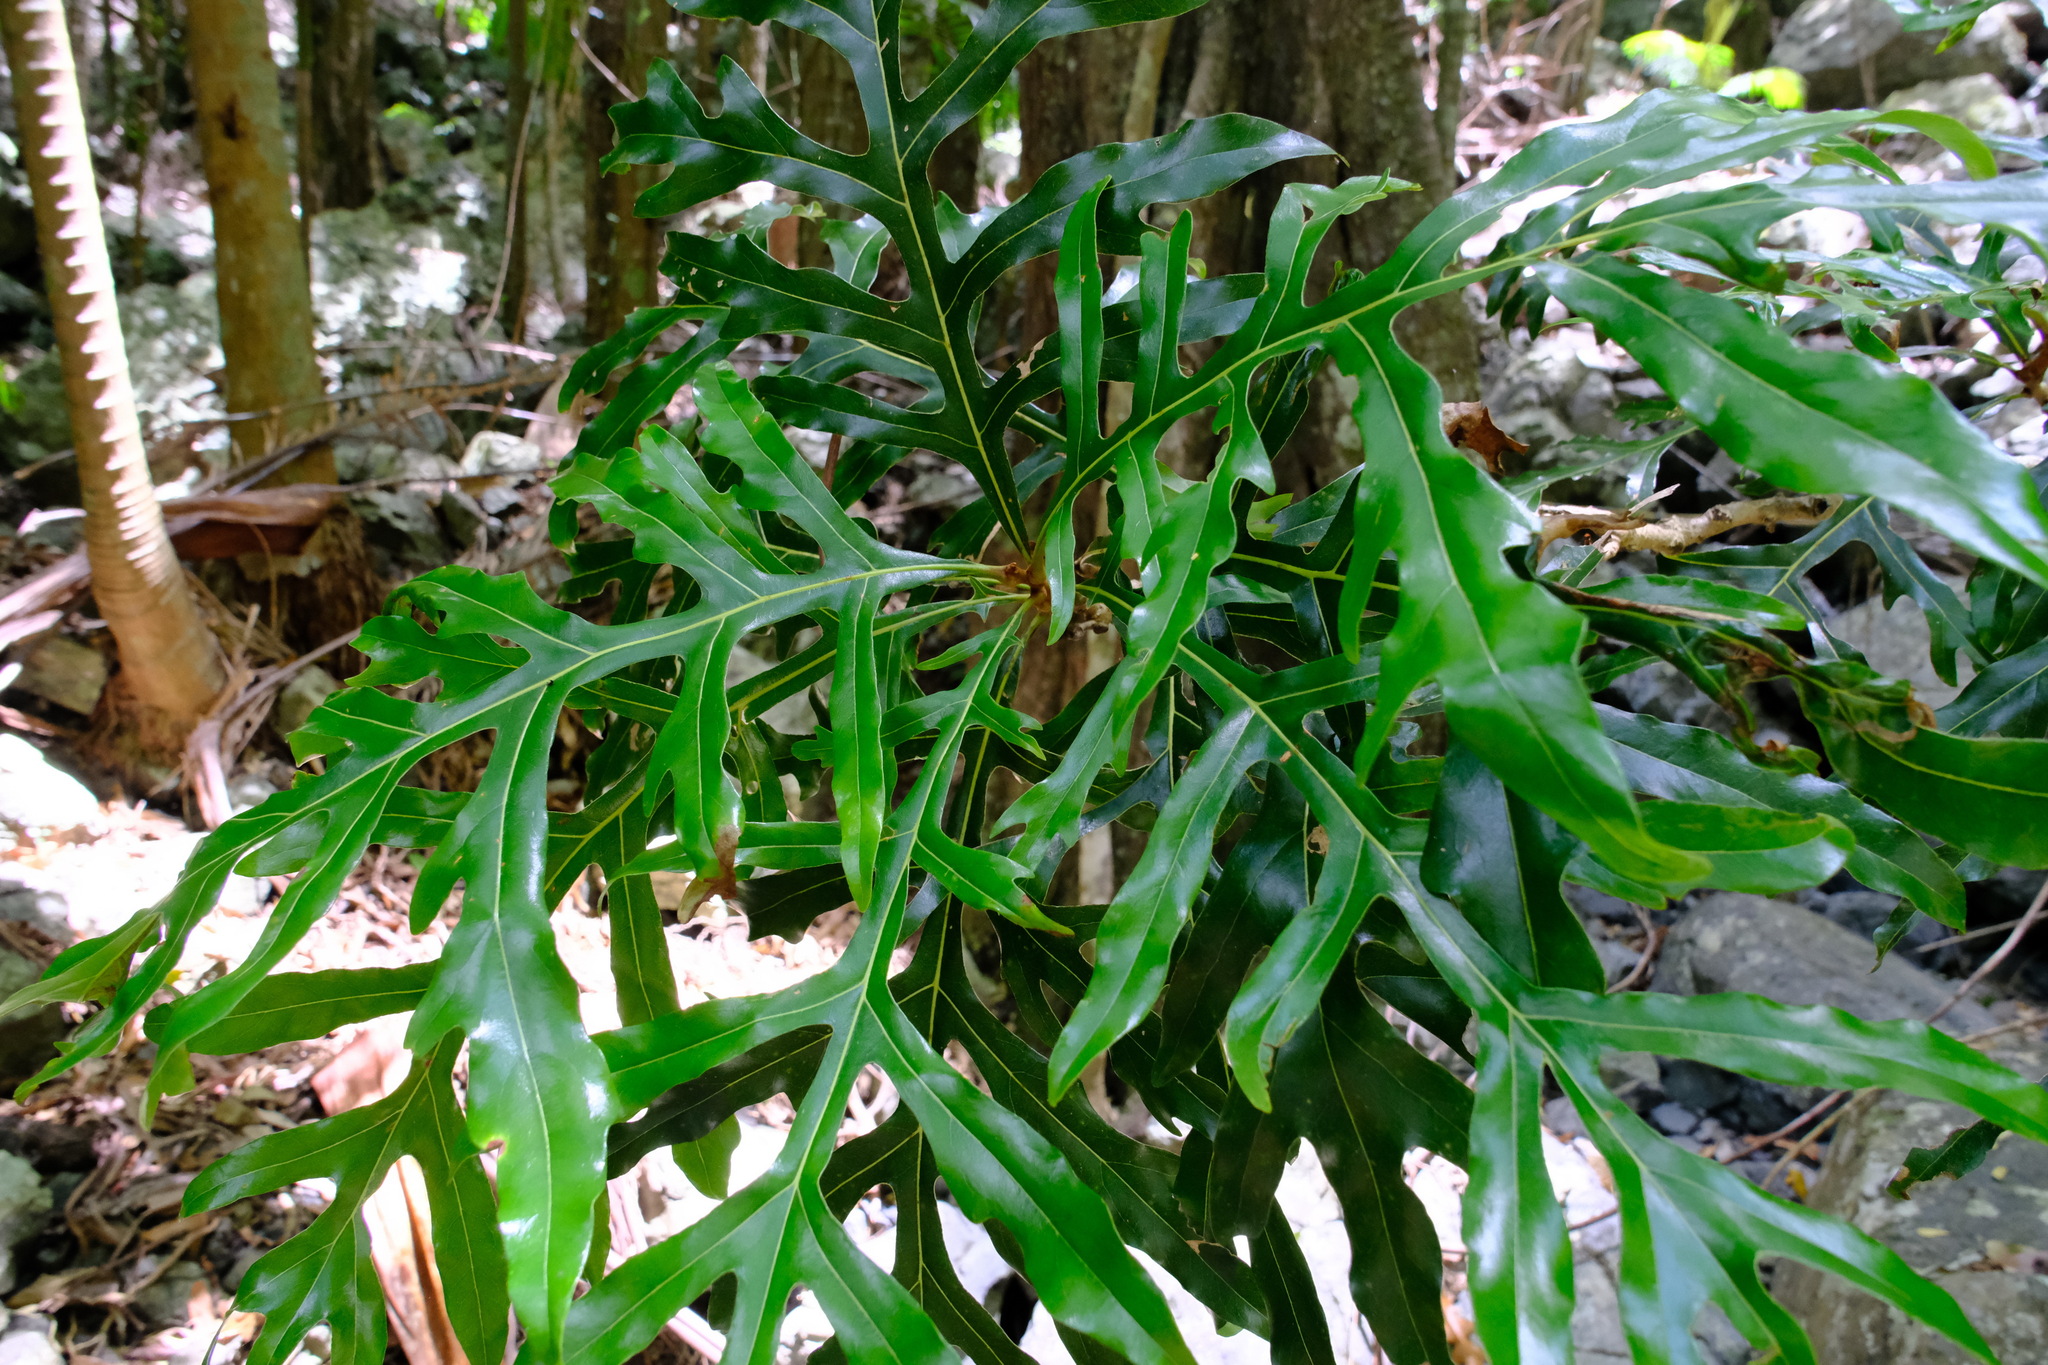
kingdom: Plantae
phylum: Tracheophyta
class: Magnoliopsida
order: Proteales
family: Proteaceae
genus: Stenocarpus
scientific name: Stenocarpus sinuatus
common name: Queensland fire-wheel-tree
